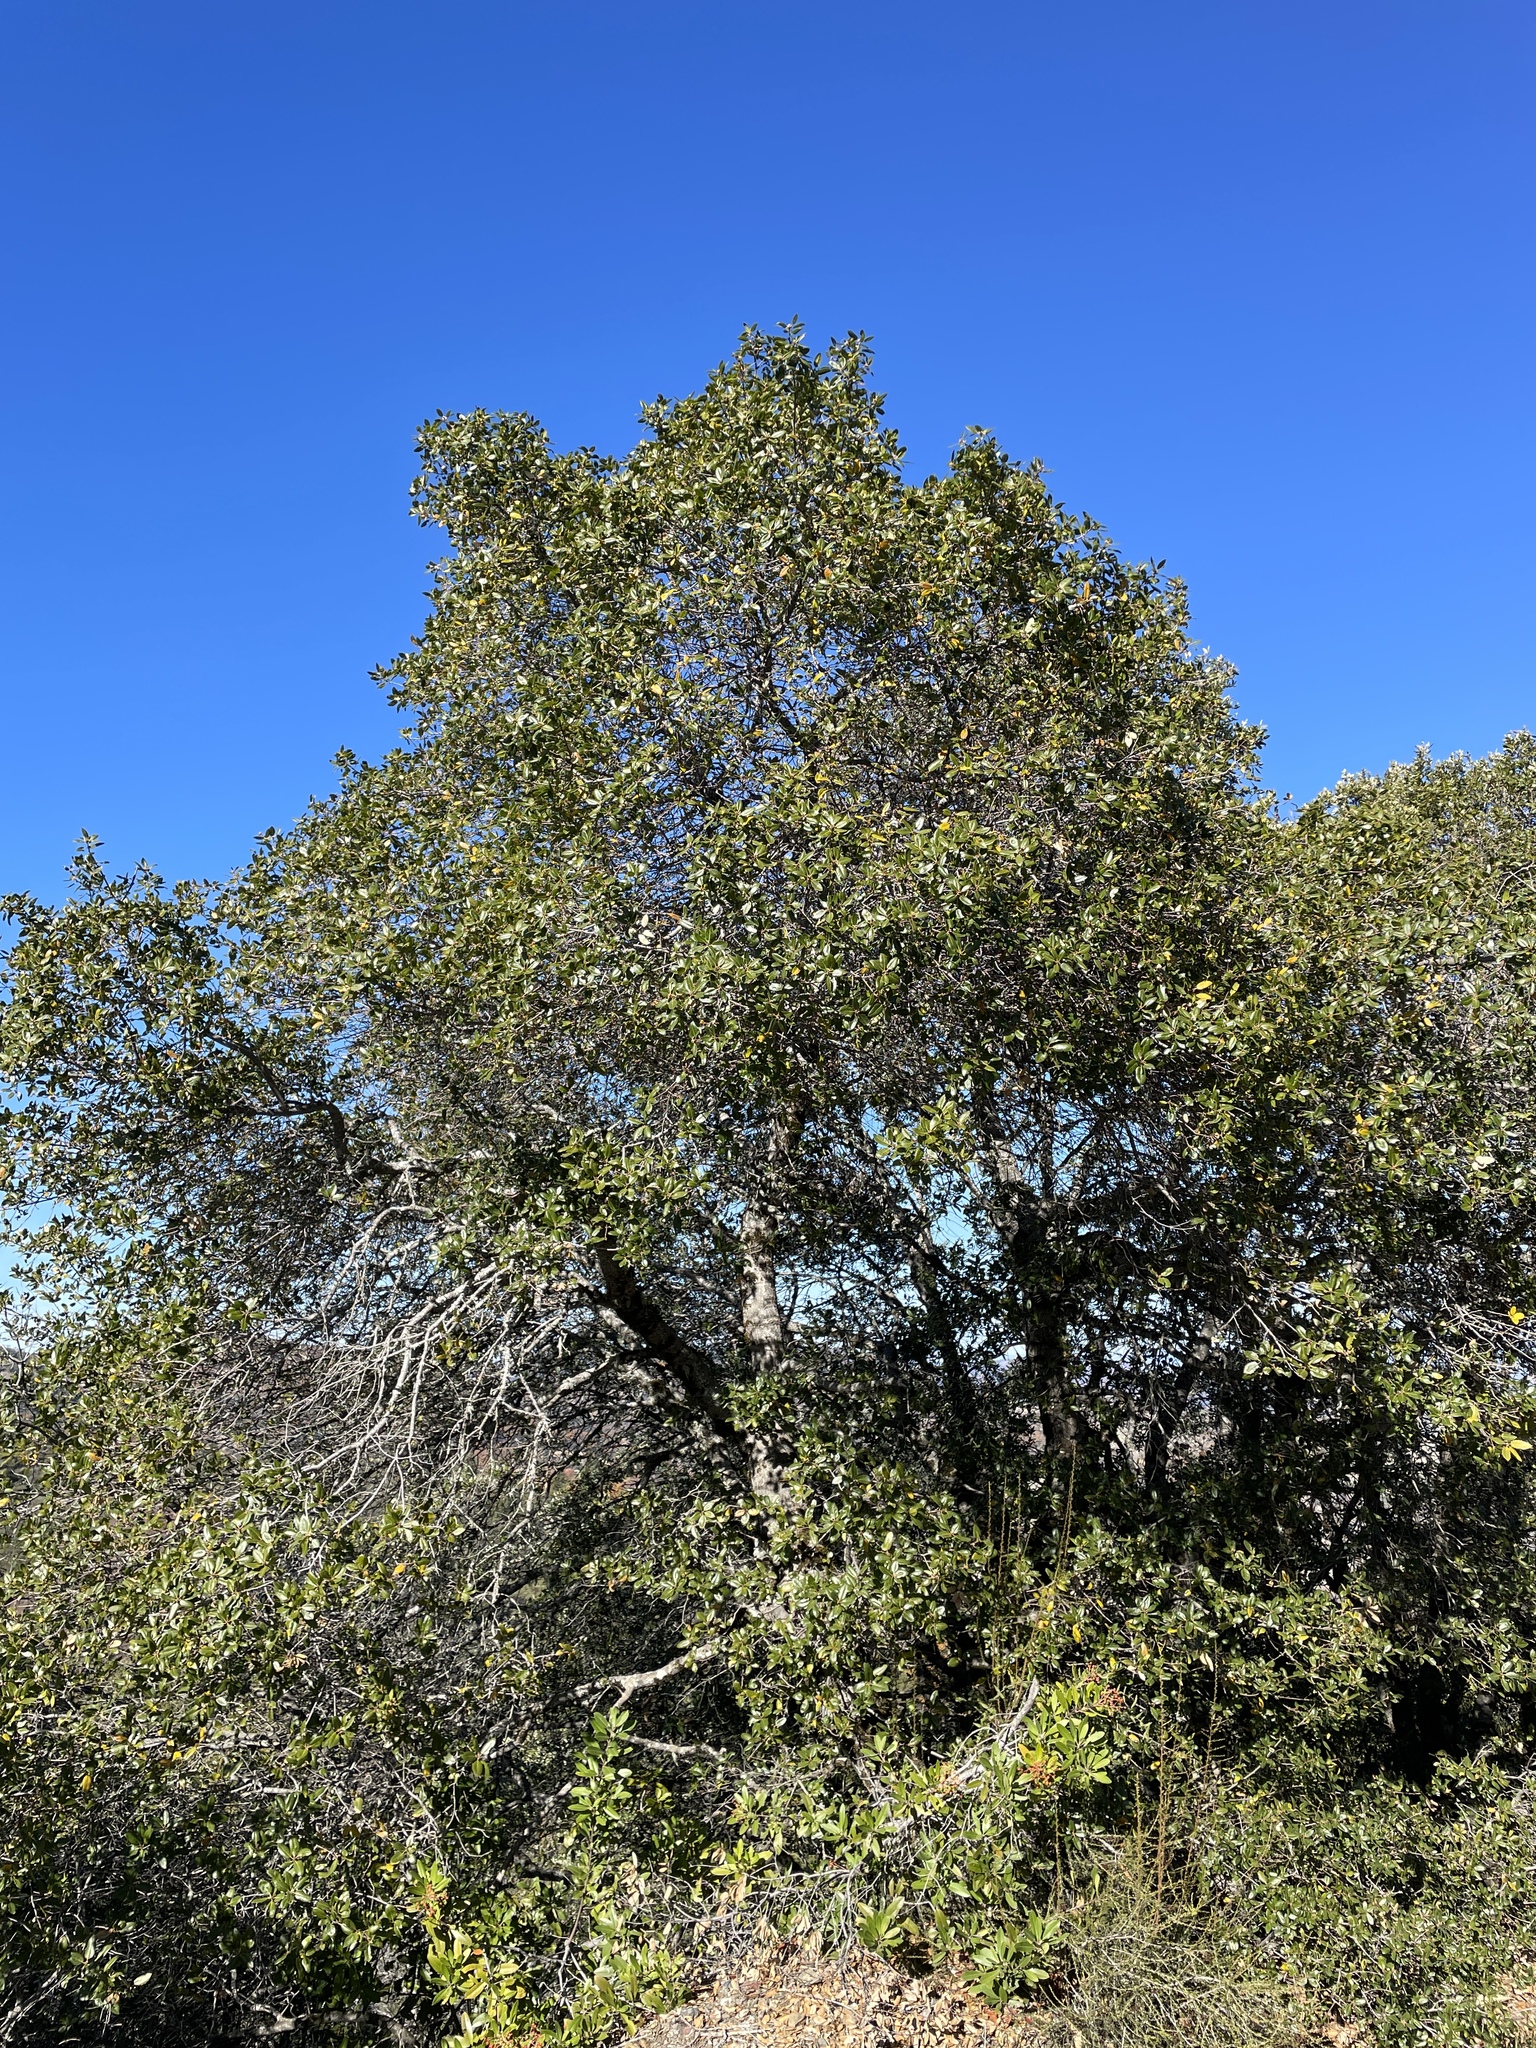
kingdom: Plantae
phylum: Tracheophyta
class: Magnoliopsida
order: Fagales
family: Fagaceae
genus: Quercus
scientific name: Quercus wislizeni
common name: Interior live oak
